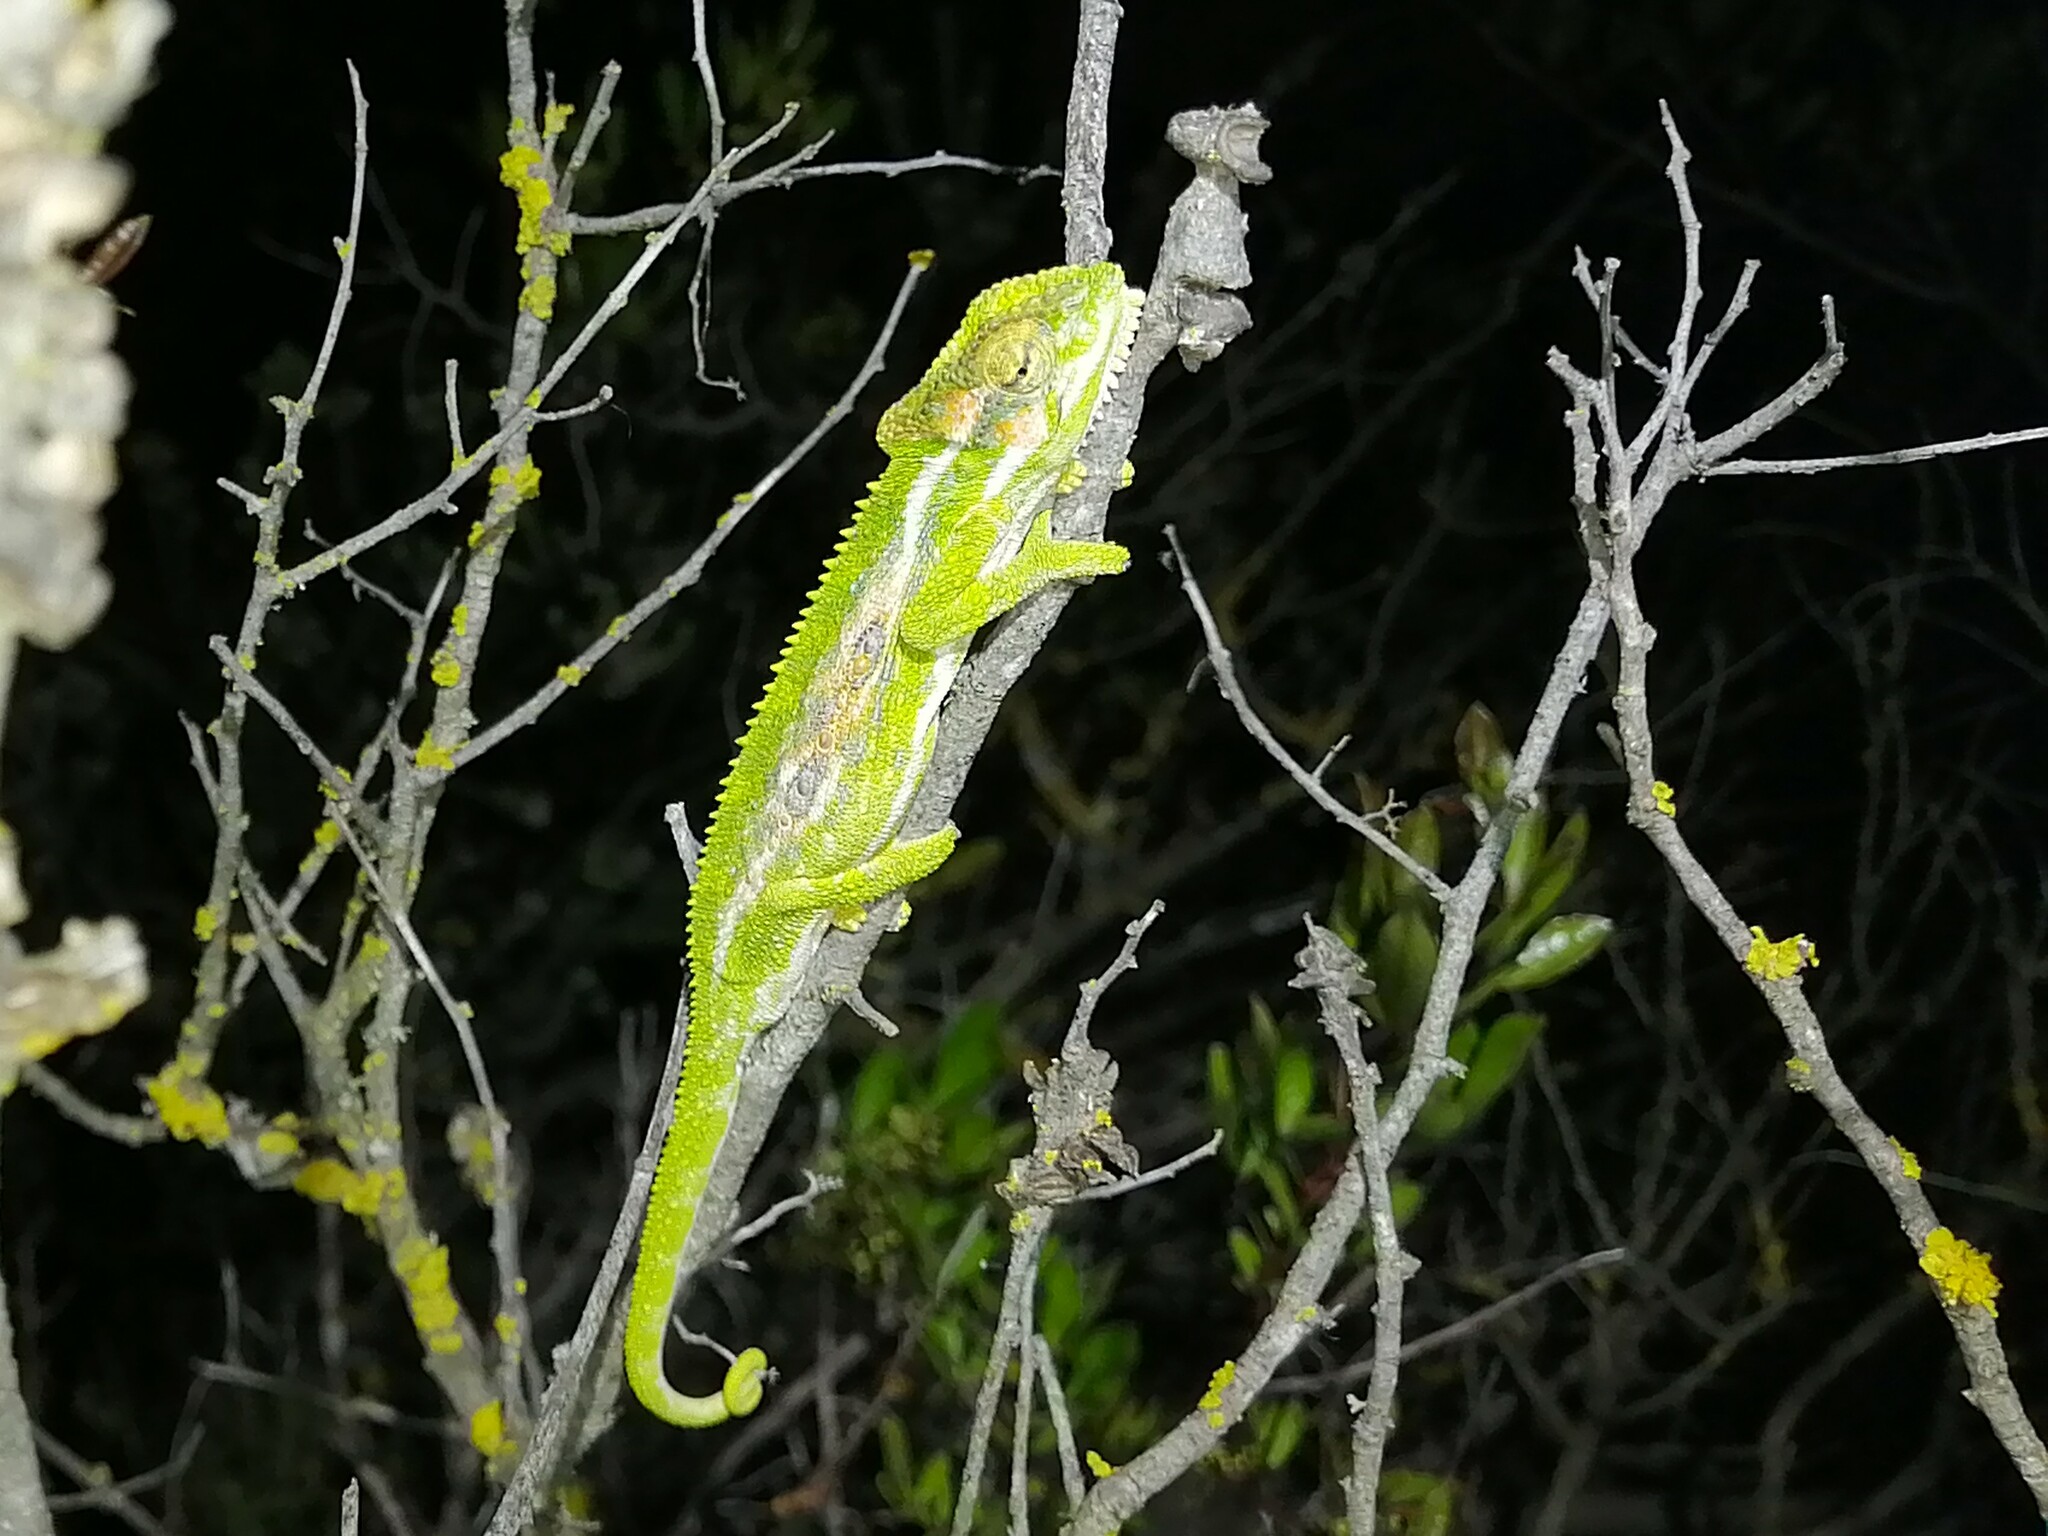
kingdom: Animalia
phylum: Chordata
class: Squamata
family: Chamaeleonidae
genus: Bradypodion
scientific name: Bradypodion pumilum
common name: Cape dwarf chameleon
